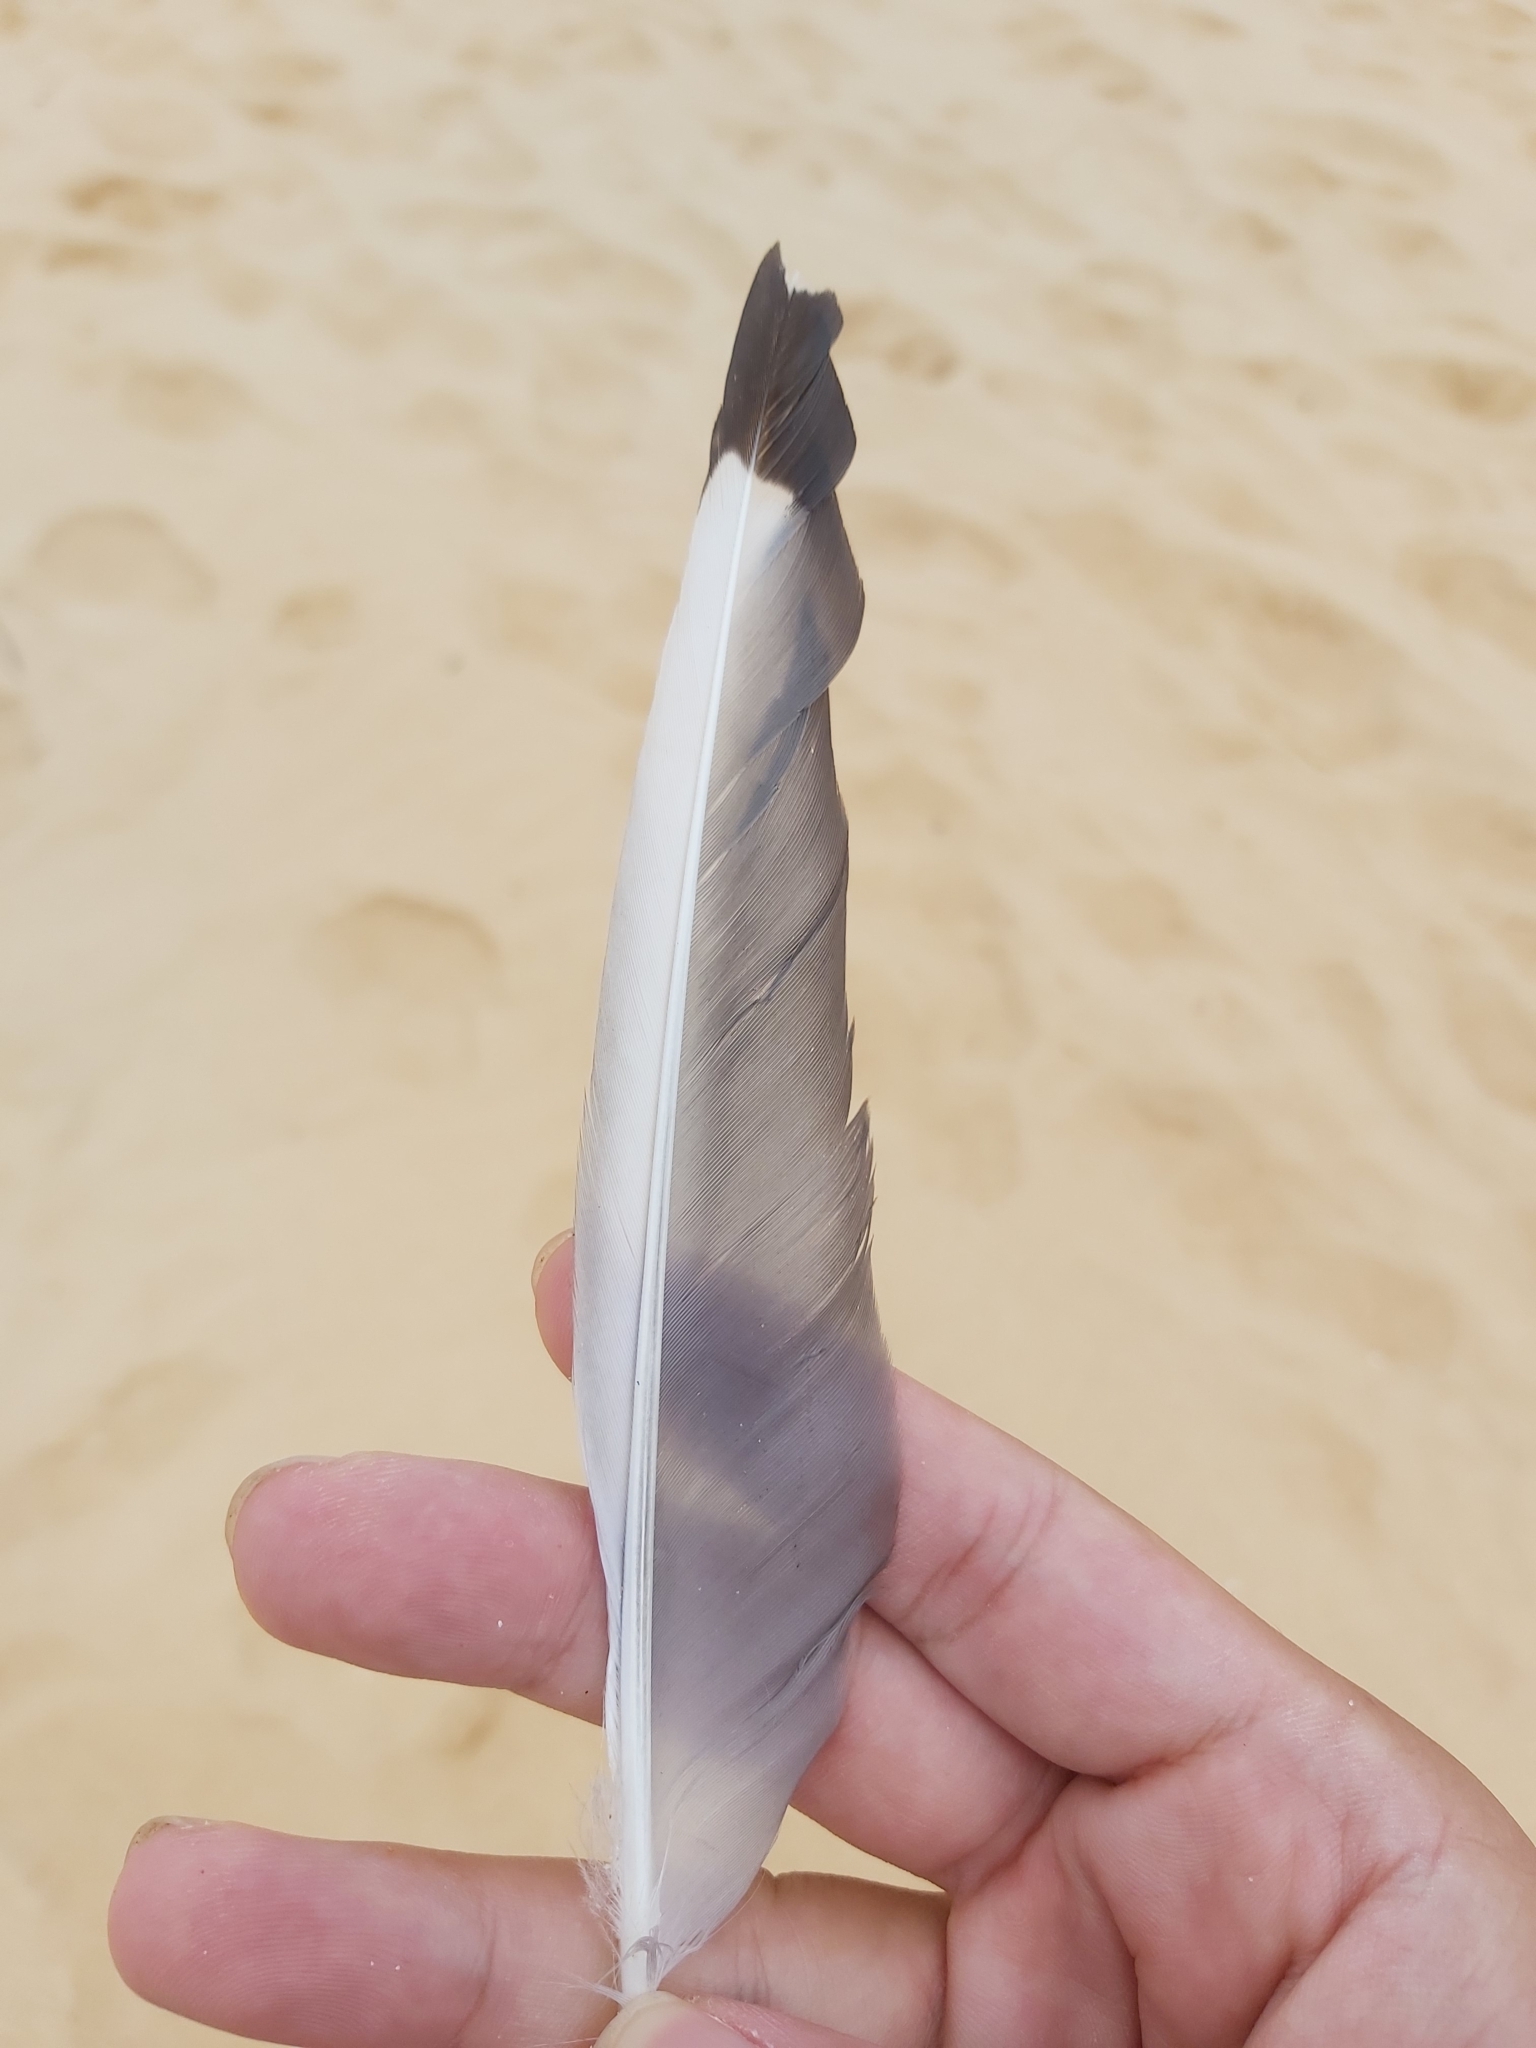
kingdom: Animalia
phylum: Chordata
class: Aves
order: Charadriiformes
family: Laridae
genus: Chroicocephalus
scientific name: Chroicocephalus novaehollandiae
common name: Silver gull
